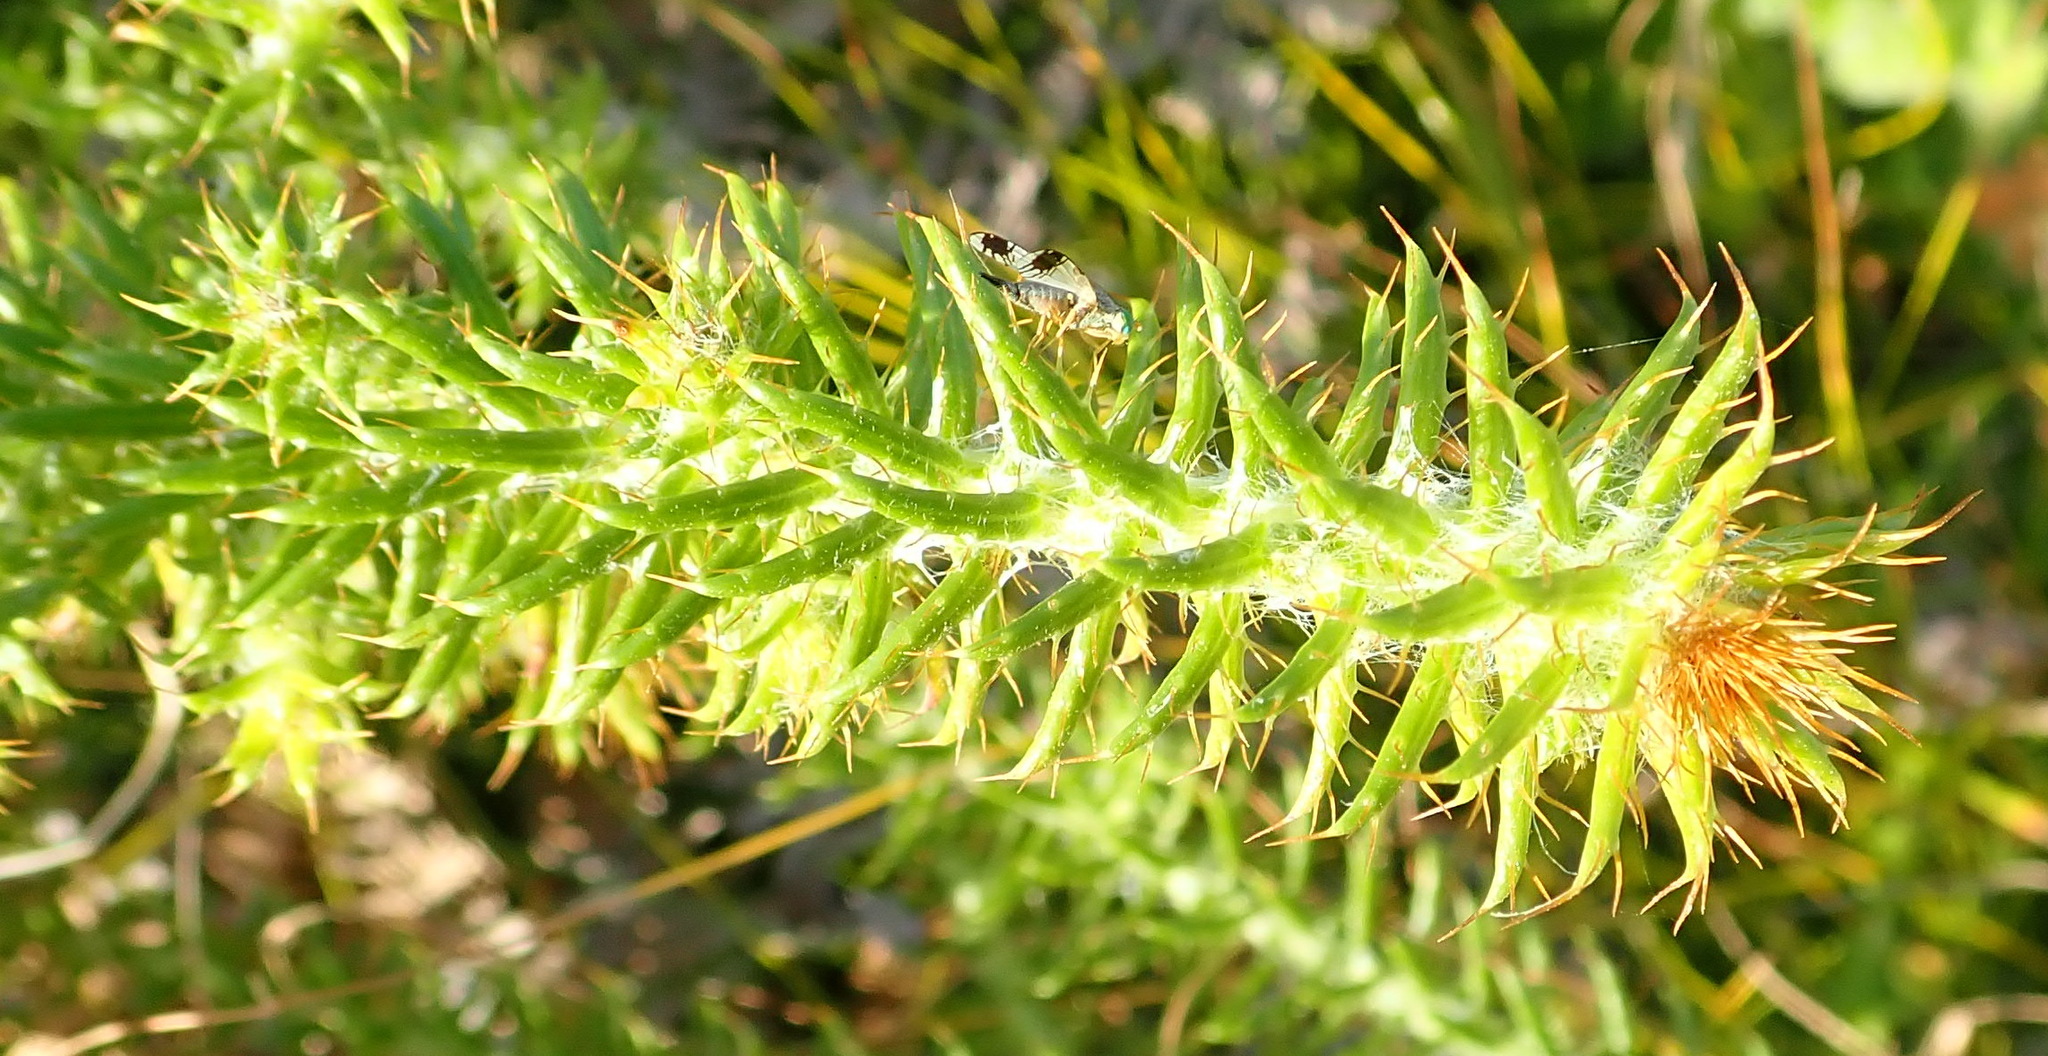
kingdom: Plantae
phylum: Tracheophyta
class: Magnoliopsida
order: Asterales
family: Asteraceae
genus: Cullumia
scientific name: Cullumia decurrens
